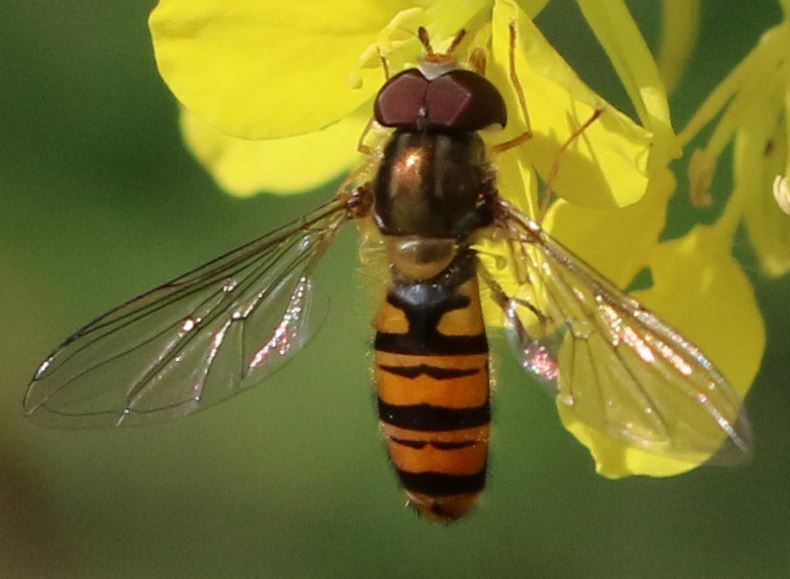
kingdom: Animalia
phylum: Arthropoda
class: Insecta
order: Diptera
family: Syrphidae
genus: Episyrphus
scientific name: Episyrphus balteatus
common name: Marmalade hoverfly
